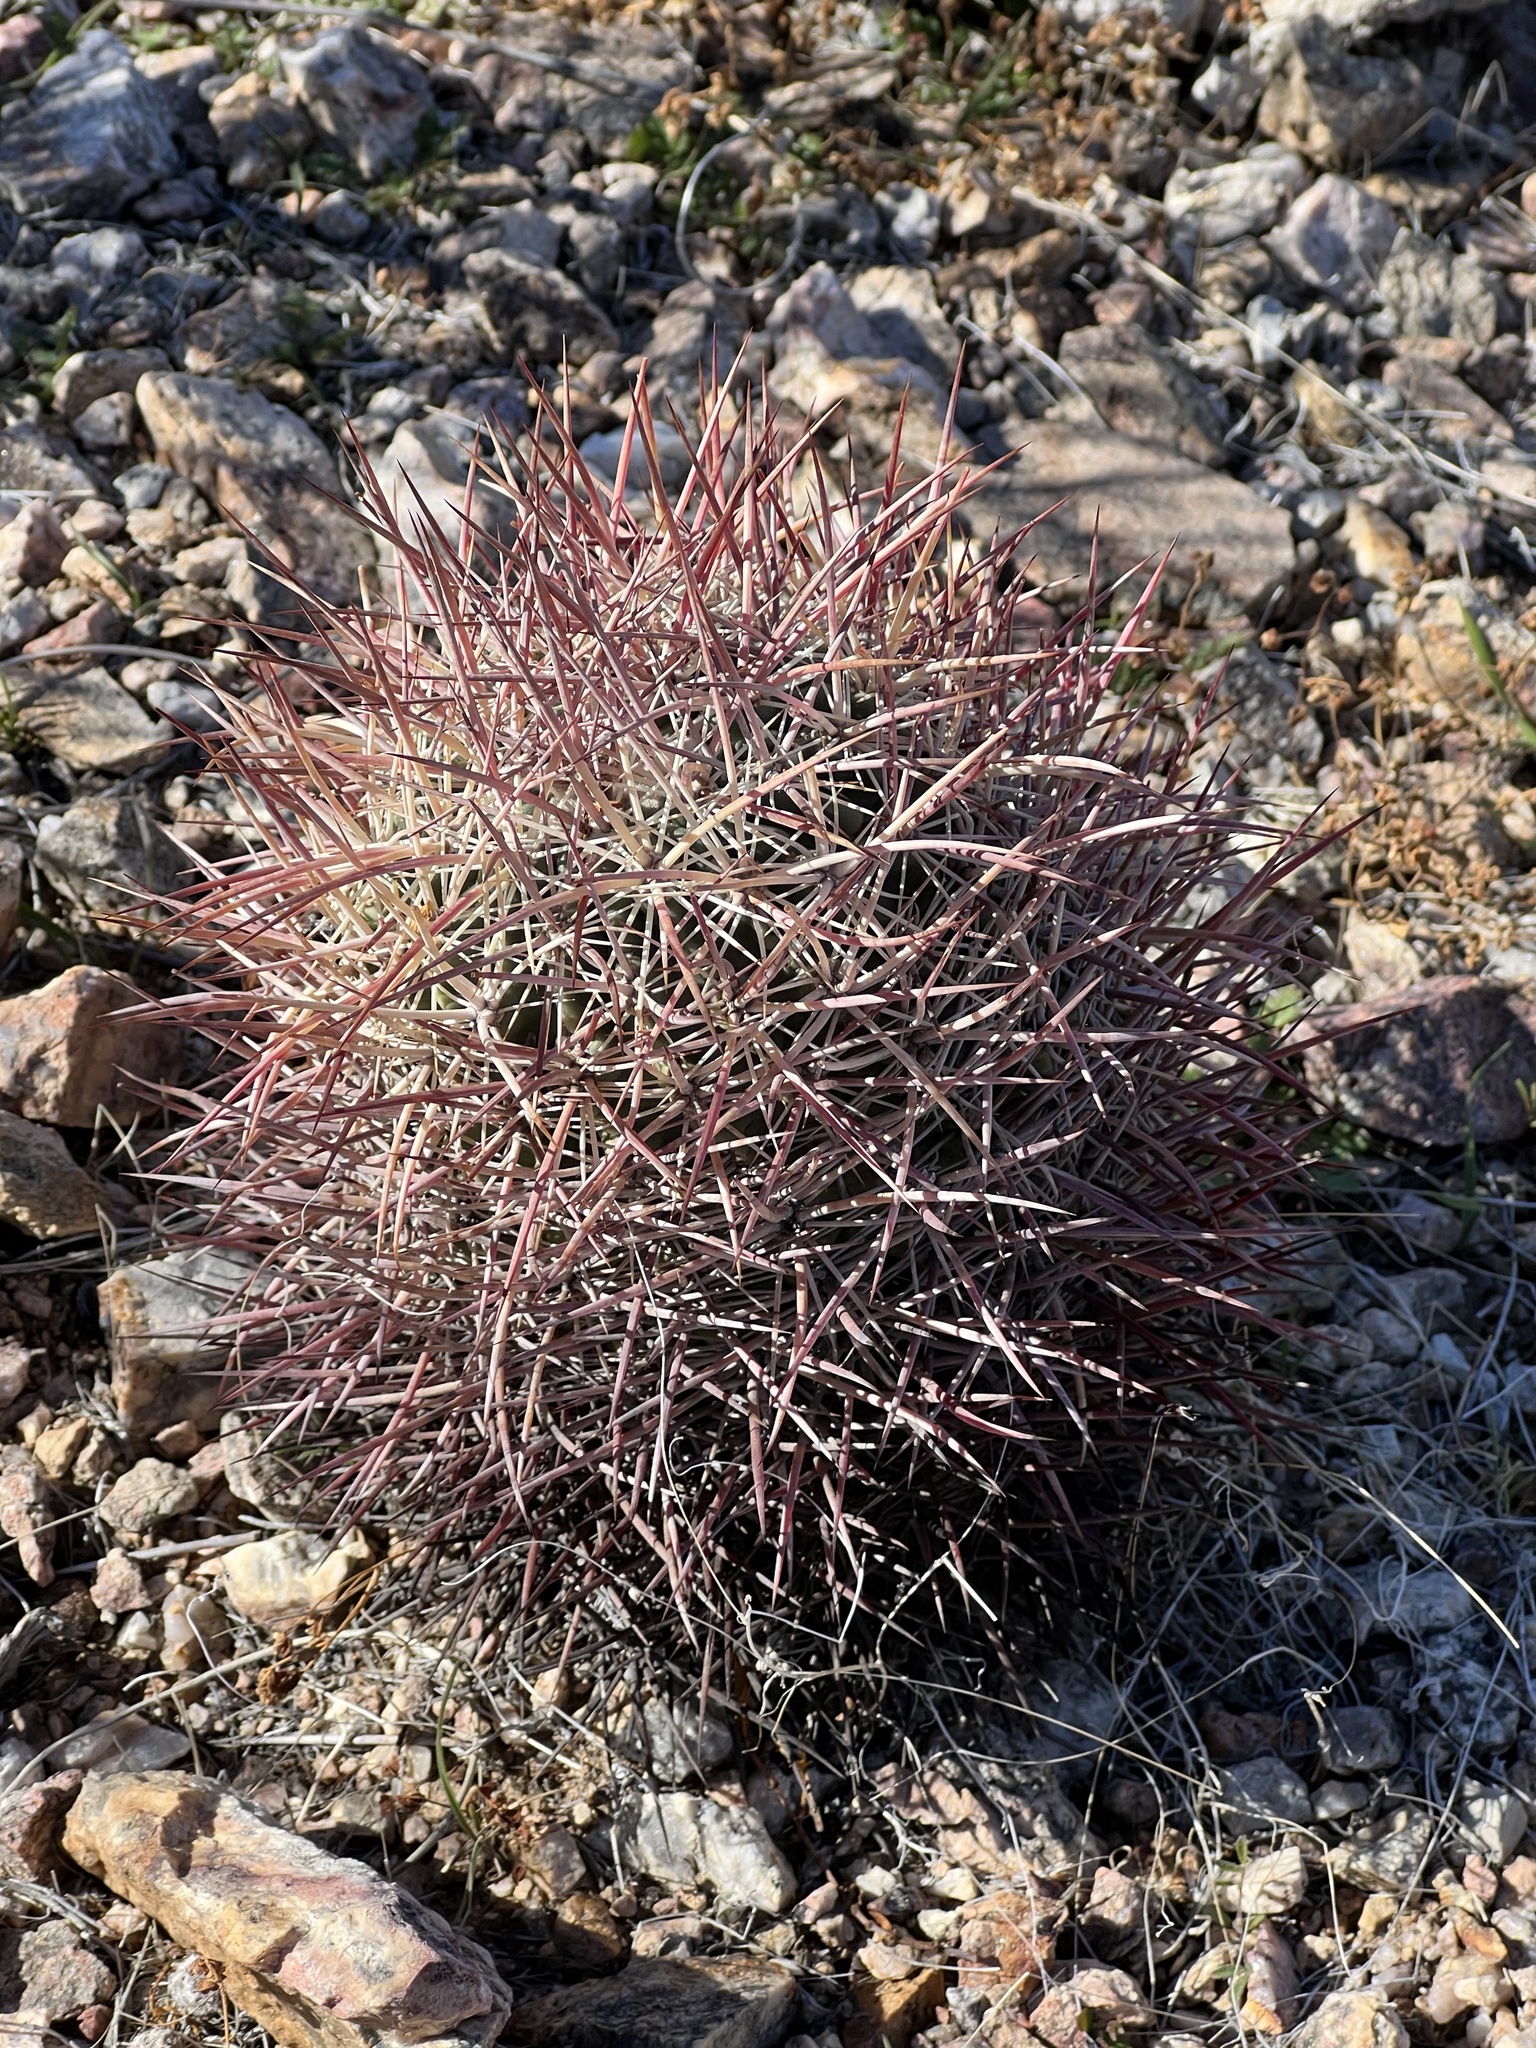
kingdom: Plantae
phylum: Tracheophyta
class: Magnoliopsida
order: Caryophyllales
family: Cactaceae
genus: Sclerocactus
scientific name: Sclerocactus johnsonii
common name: Eight-spine fishhook cactus
